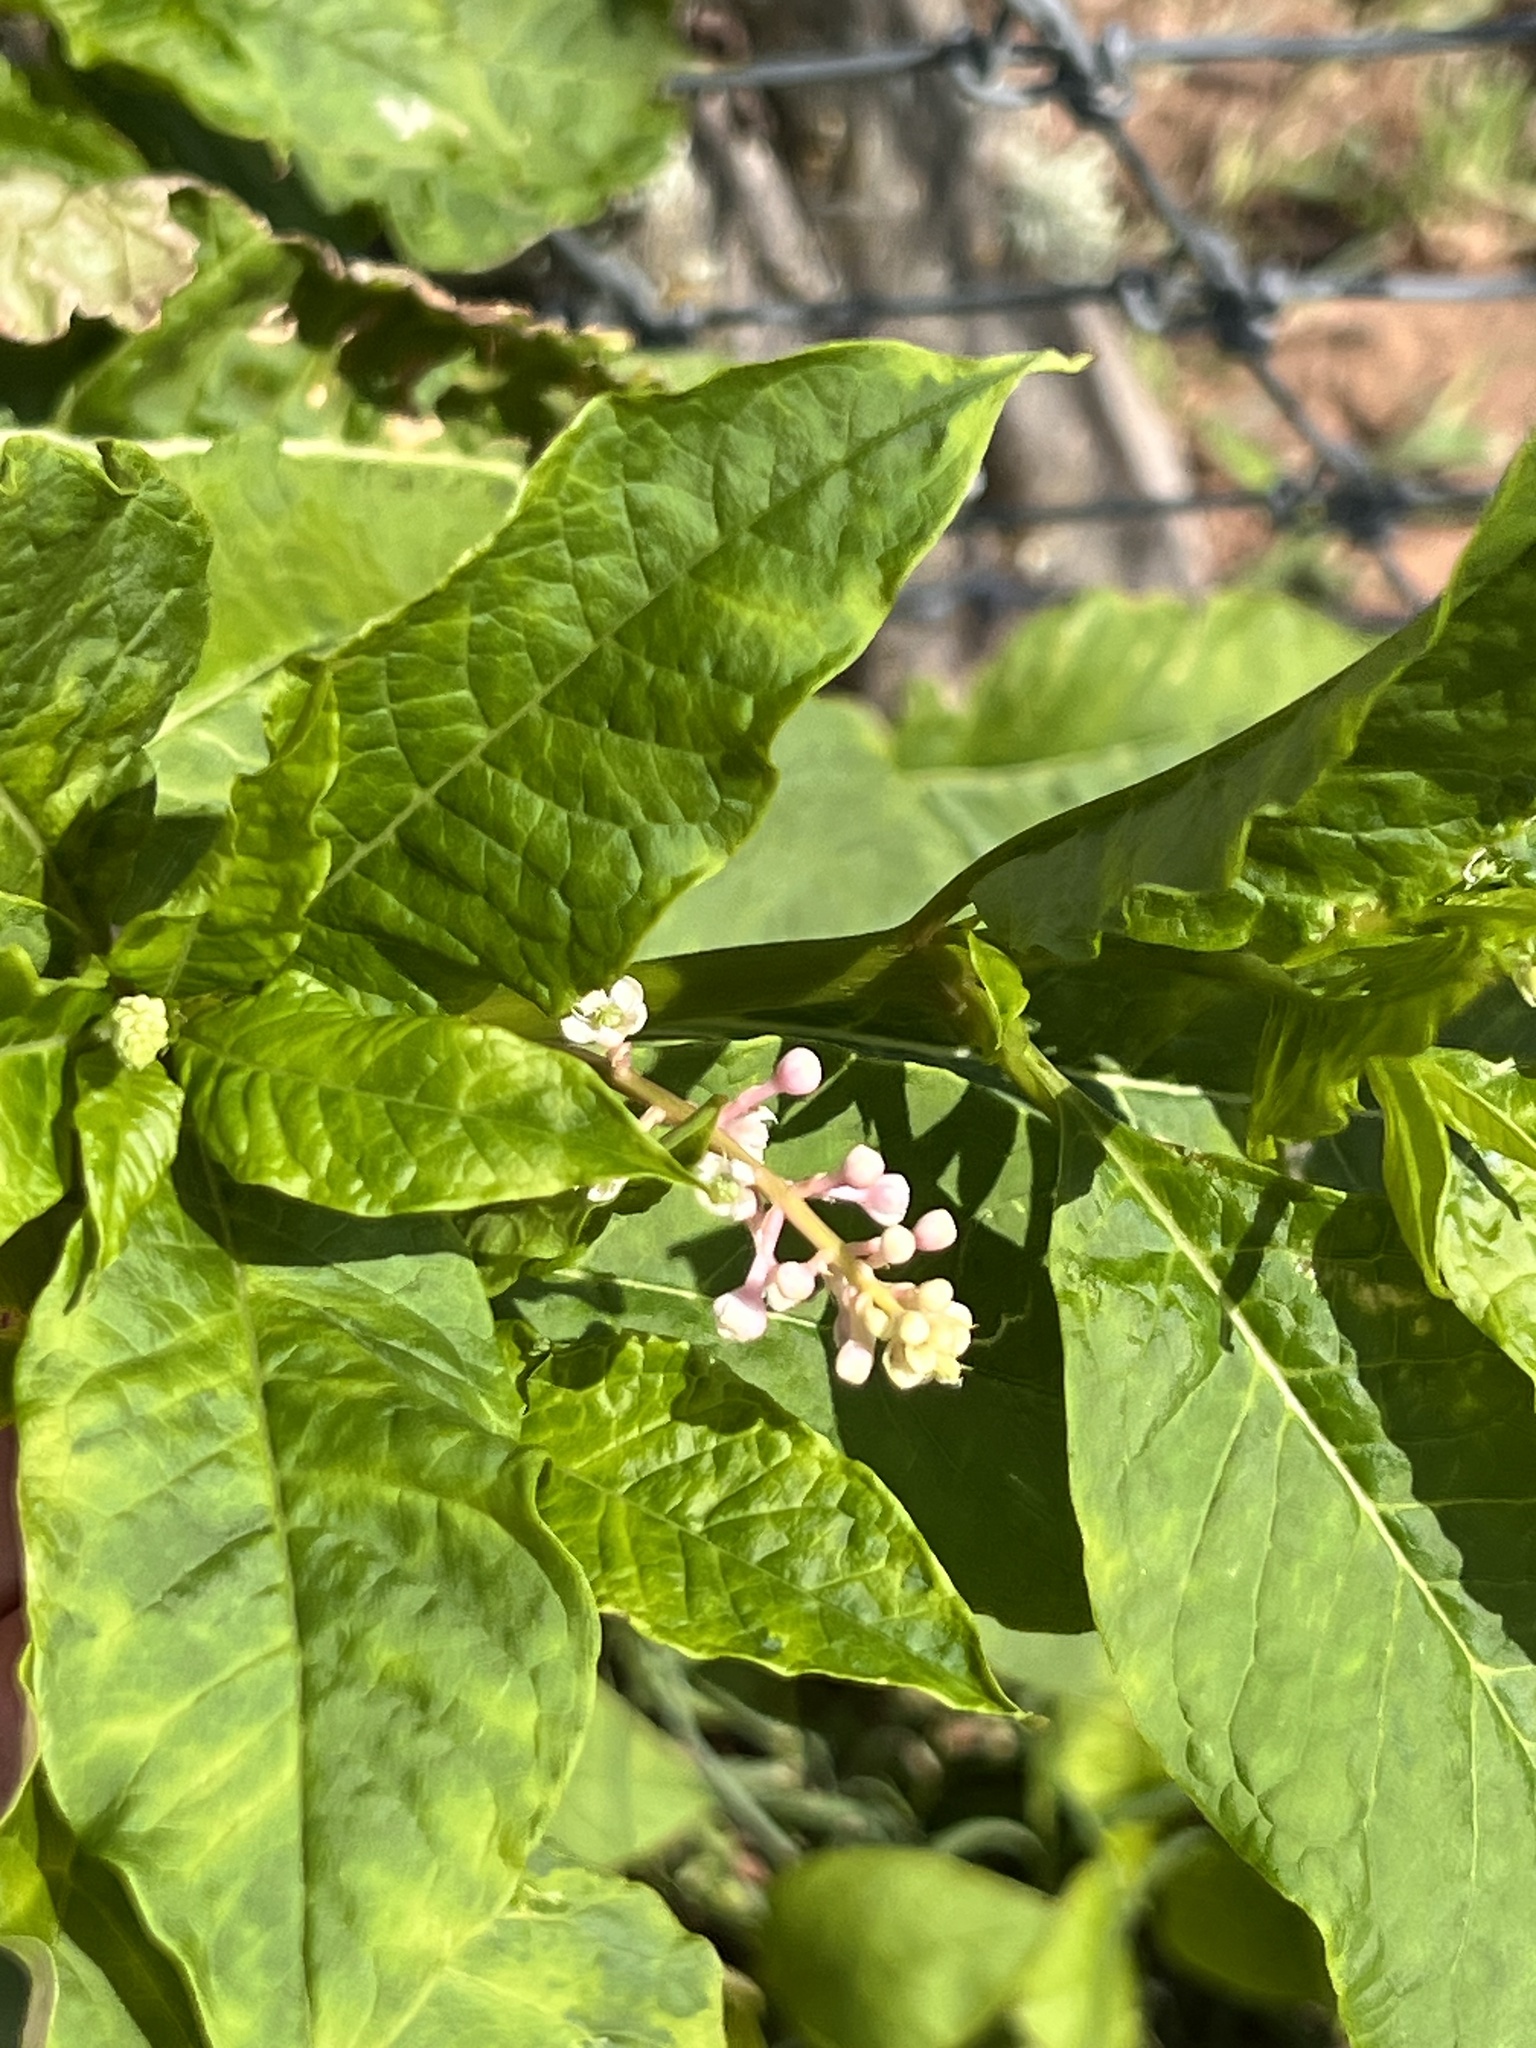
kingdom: Plantae
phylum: Tracheophyta
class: Magnoliopsida
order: Caryophyllales
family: Phytolaccaceae
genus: Phytolacca
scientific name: Phytolacca americana
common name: American pokeweed
